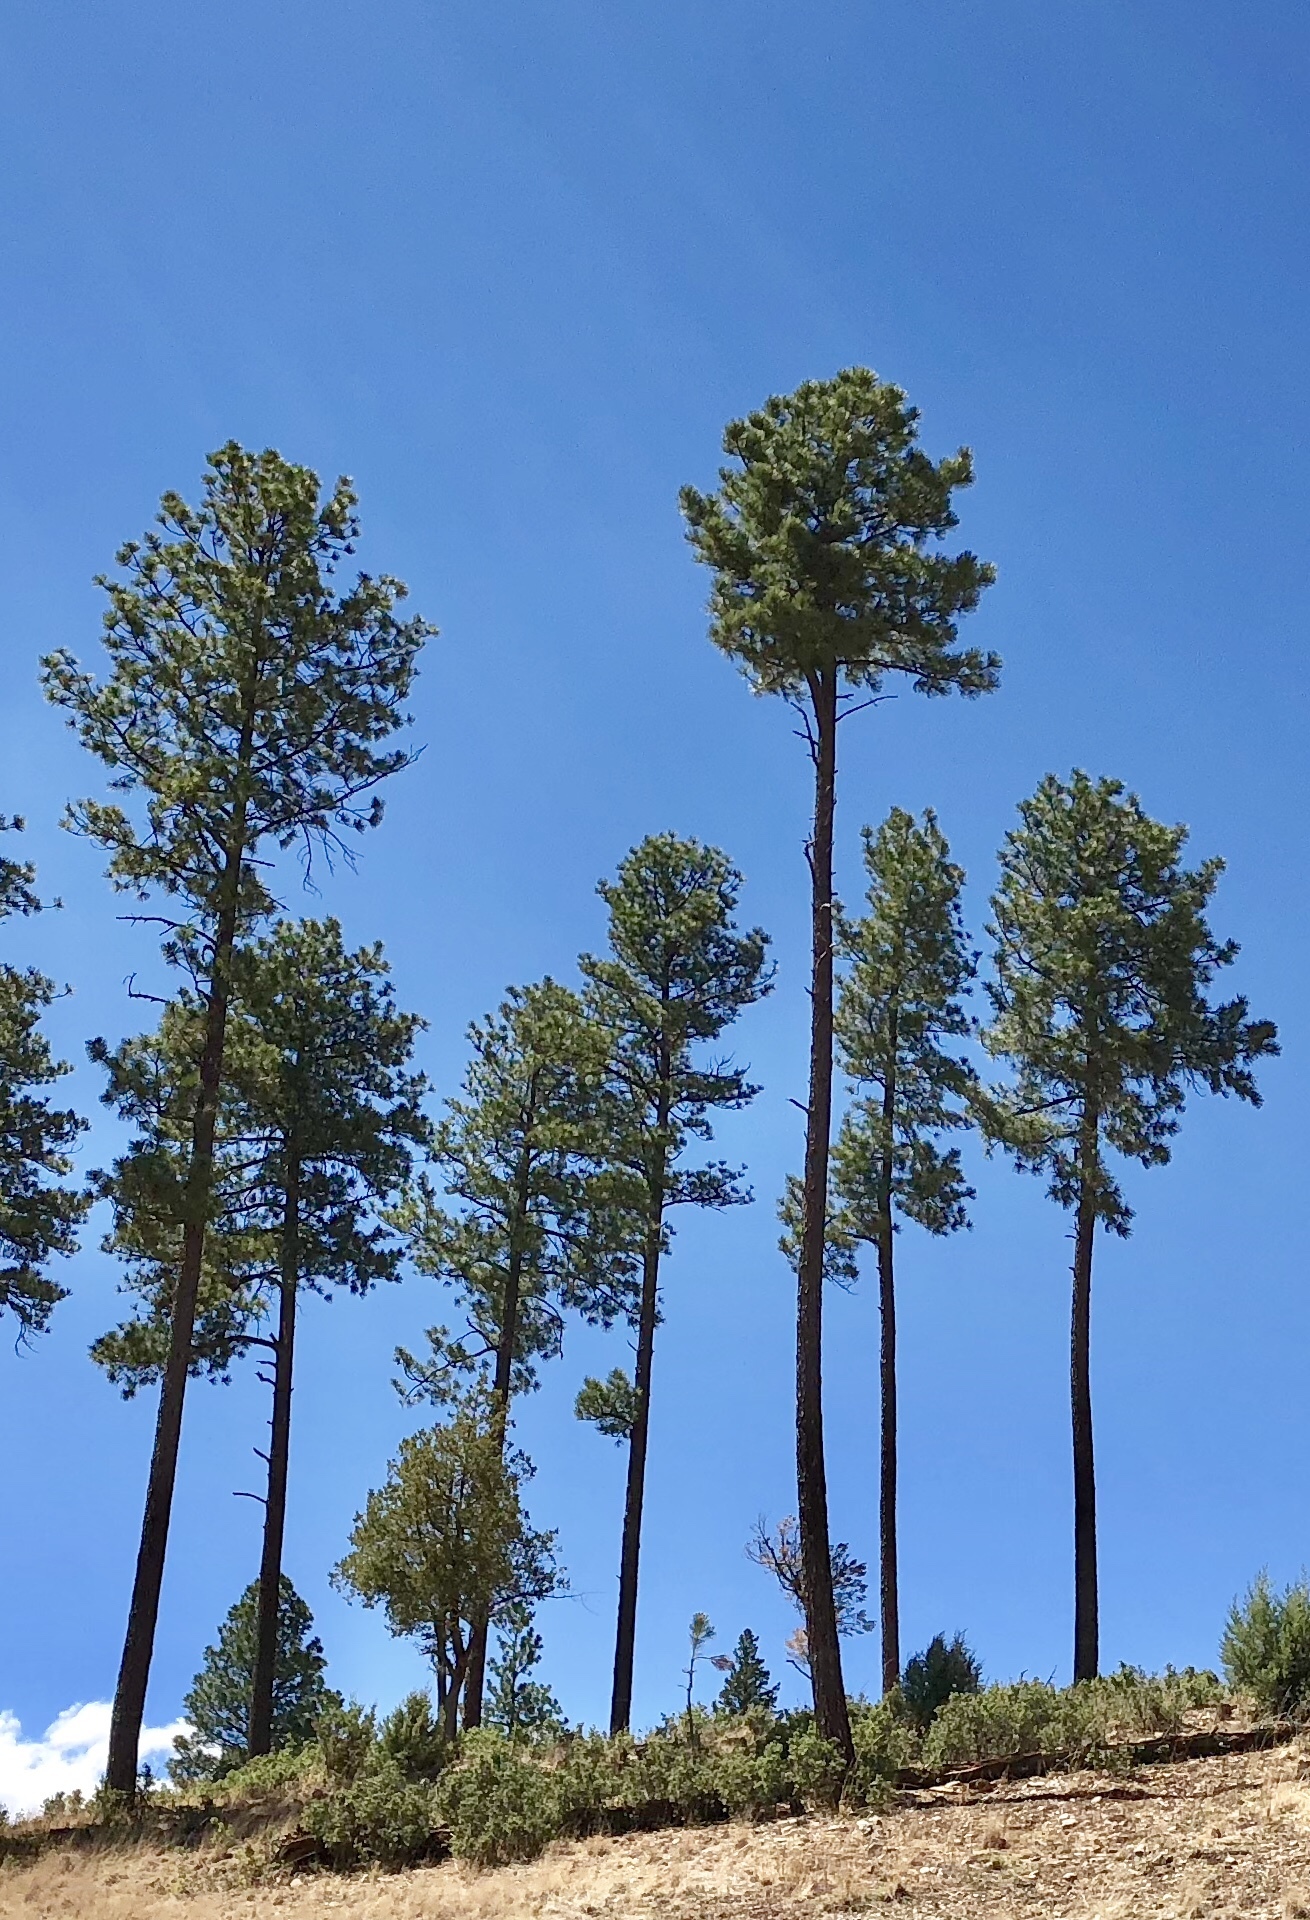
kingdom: Plantae
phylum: Tracheophyta
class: Pinopsida
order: Pinales
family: Pinaceae
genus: Pinus
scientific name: Pinus ponderosa
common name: Western yellow-pine
